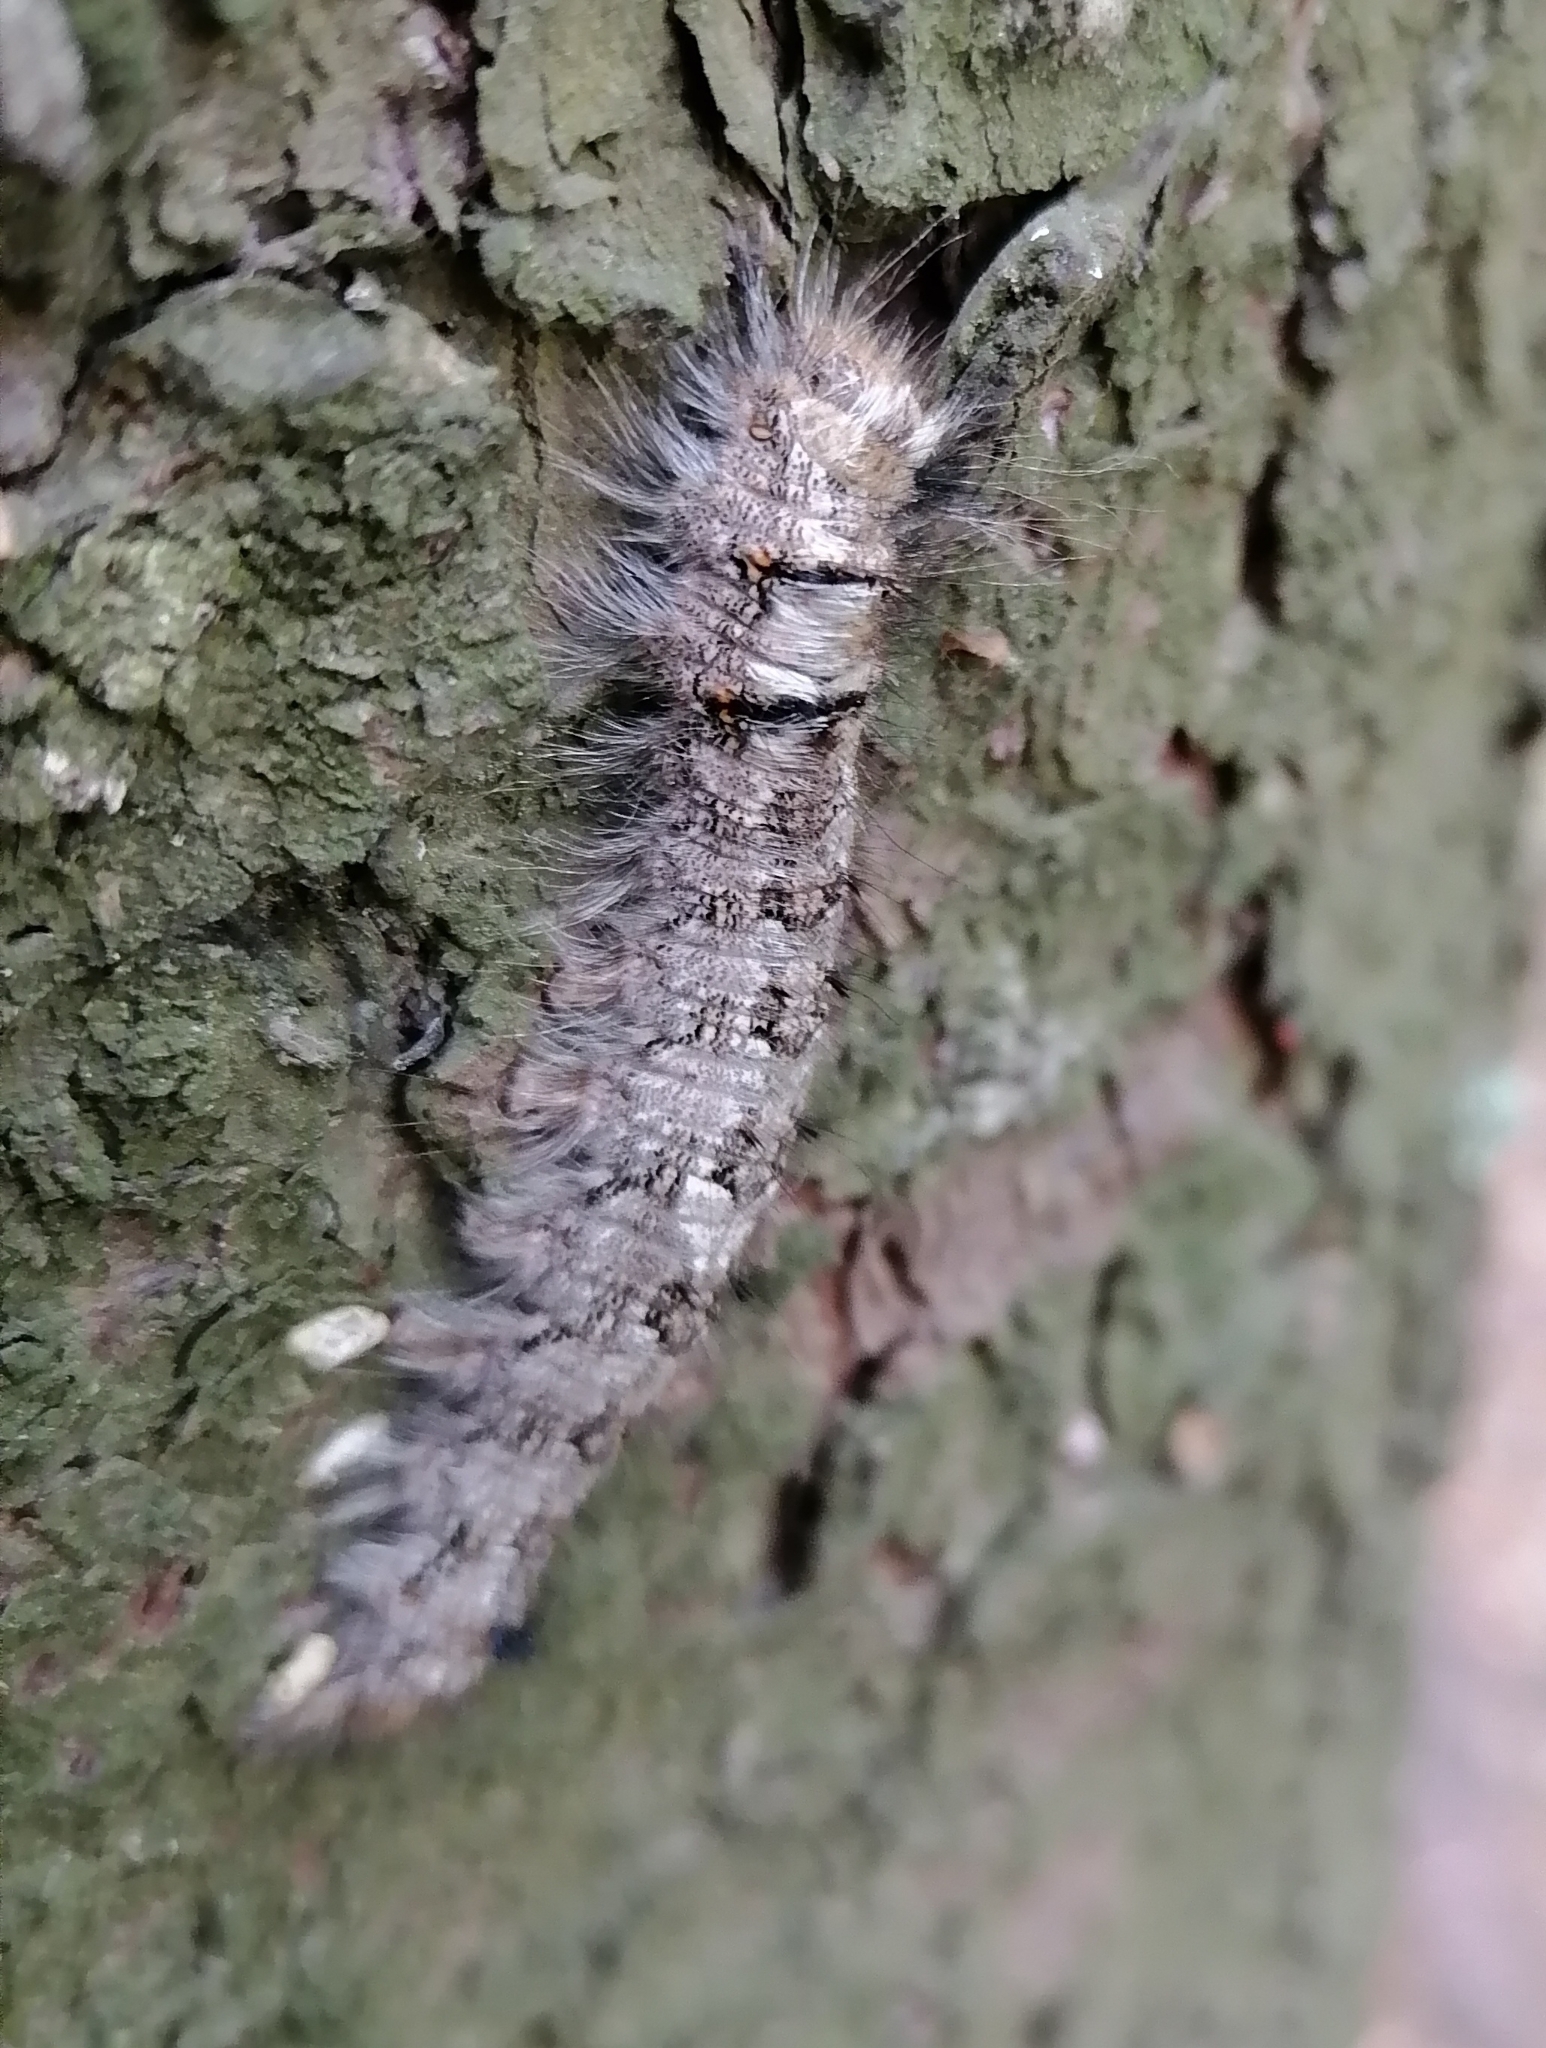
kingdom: Animalia
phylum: Arthropoda
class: Insecta
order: Lepidoptera
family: Lasiocampidae
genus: Dendrolimus
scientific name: Dendrolimus pini
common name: Pine-tree lappet
